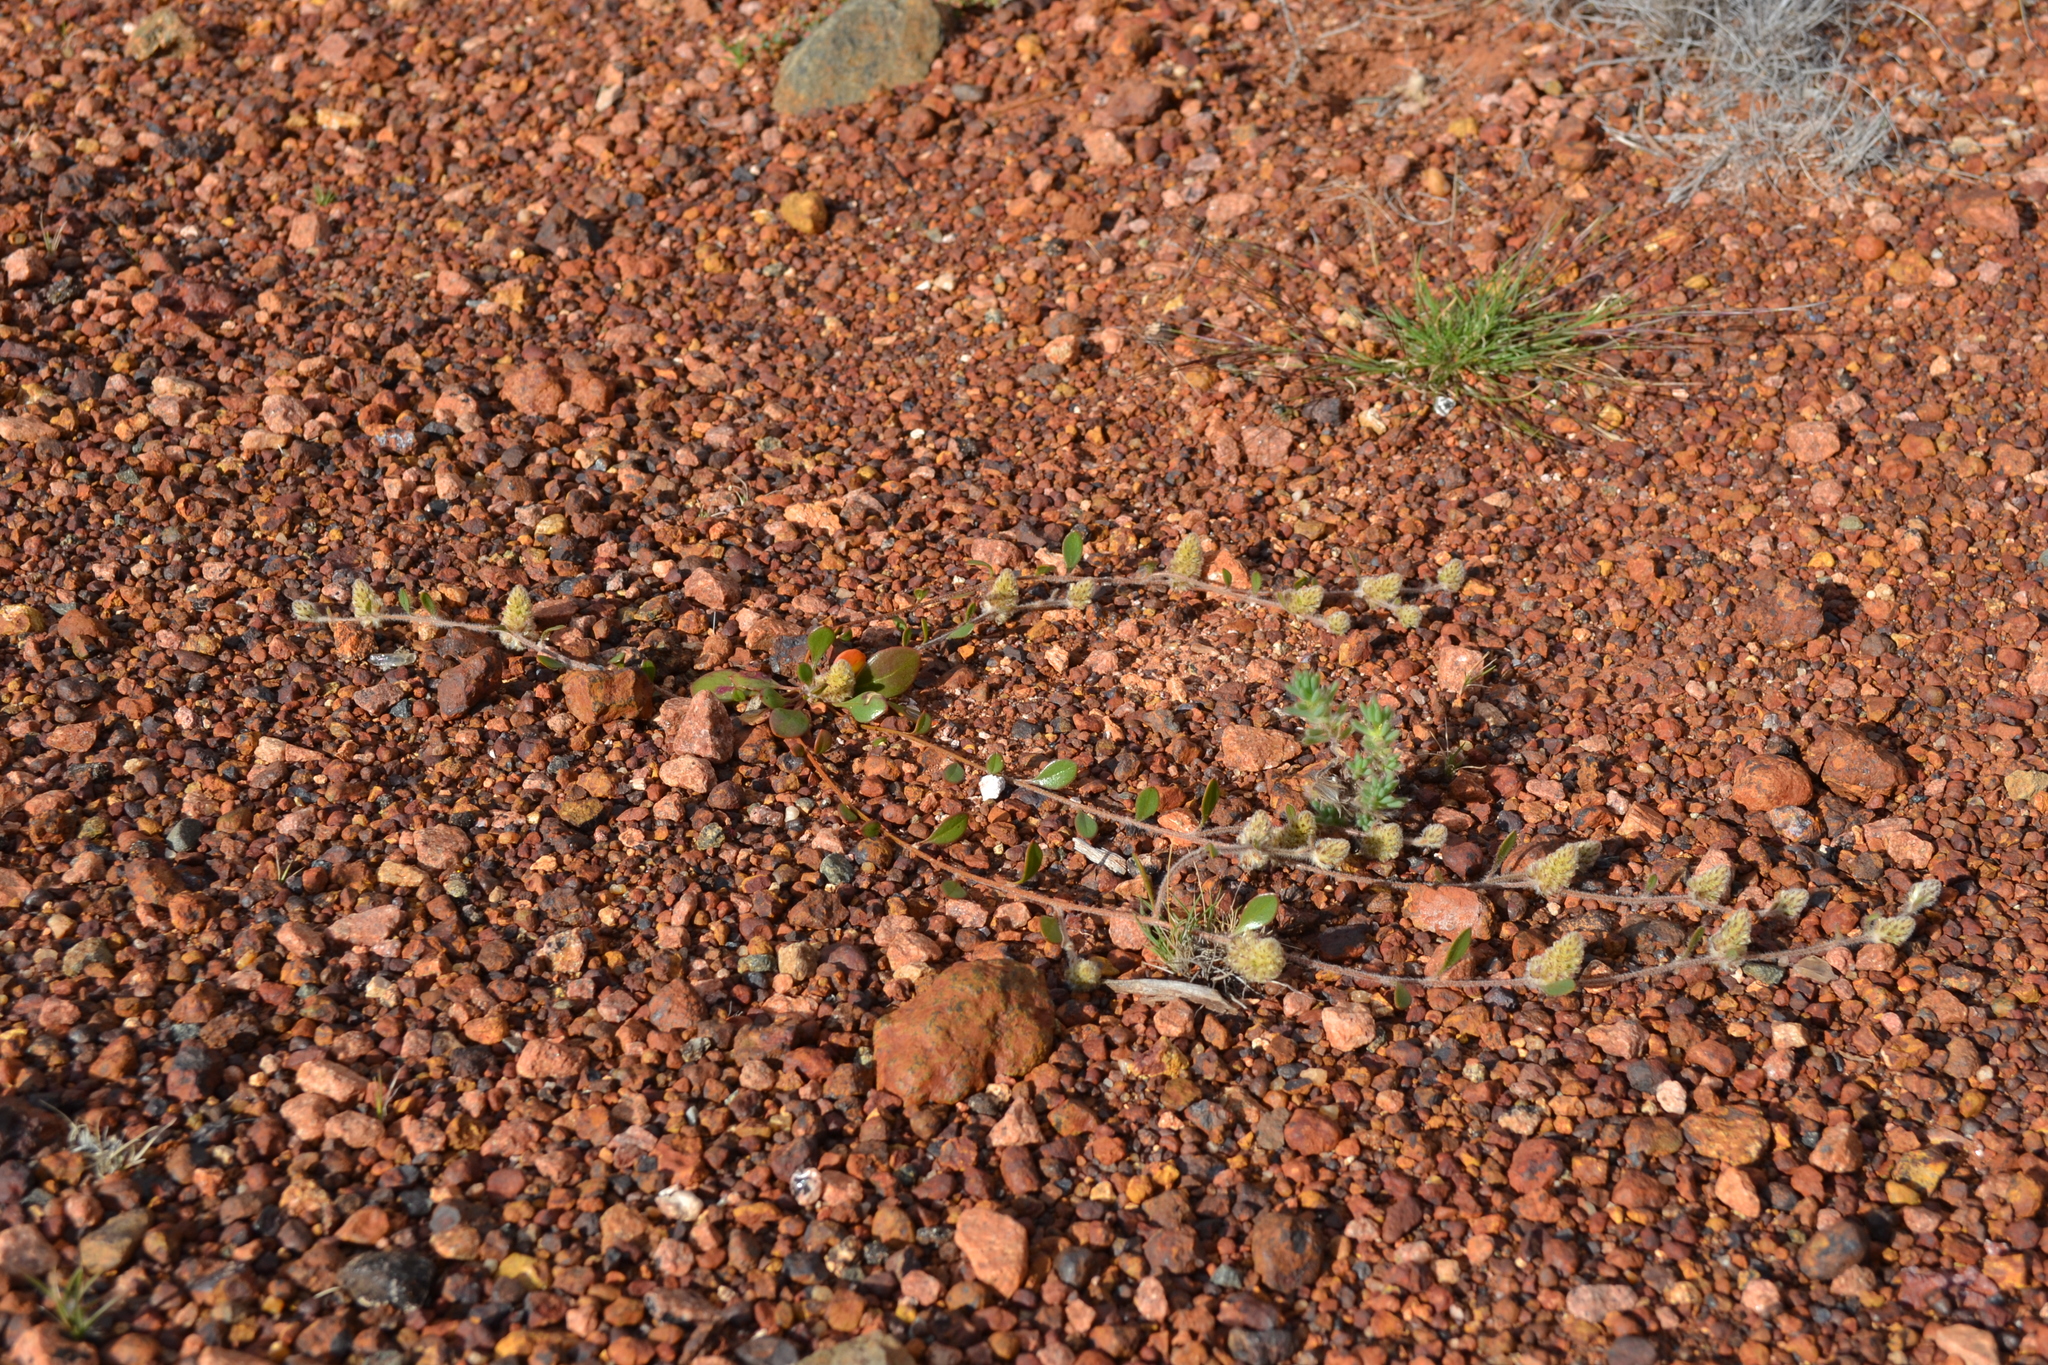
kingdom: Plantae
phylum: Tracheophyta
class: Magnoliopsida
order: Caryophyllales
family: Amaranthaceae
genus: Ptilotus
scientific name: Ptilotus aervoides
